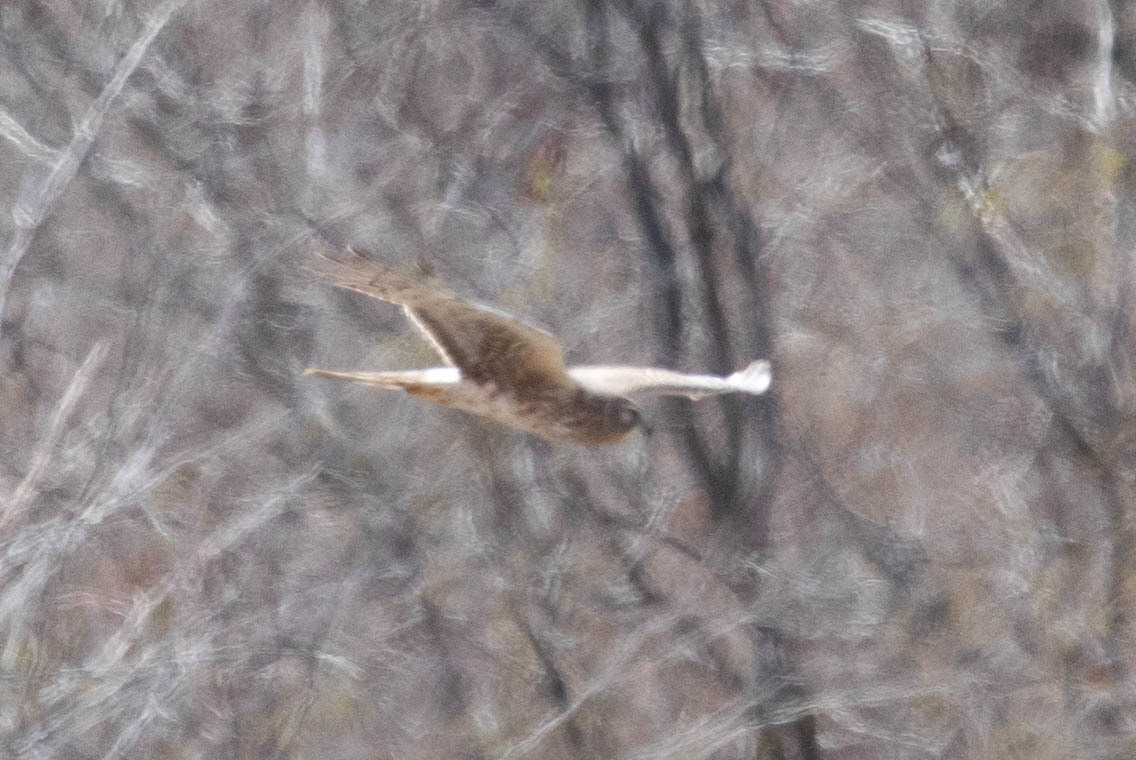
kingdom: Animalia
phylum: Chordata
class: Aves
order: Accipitriformes
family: Accipitridae
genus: Circus
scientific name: Circus cyaneus
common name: Hen harrier
